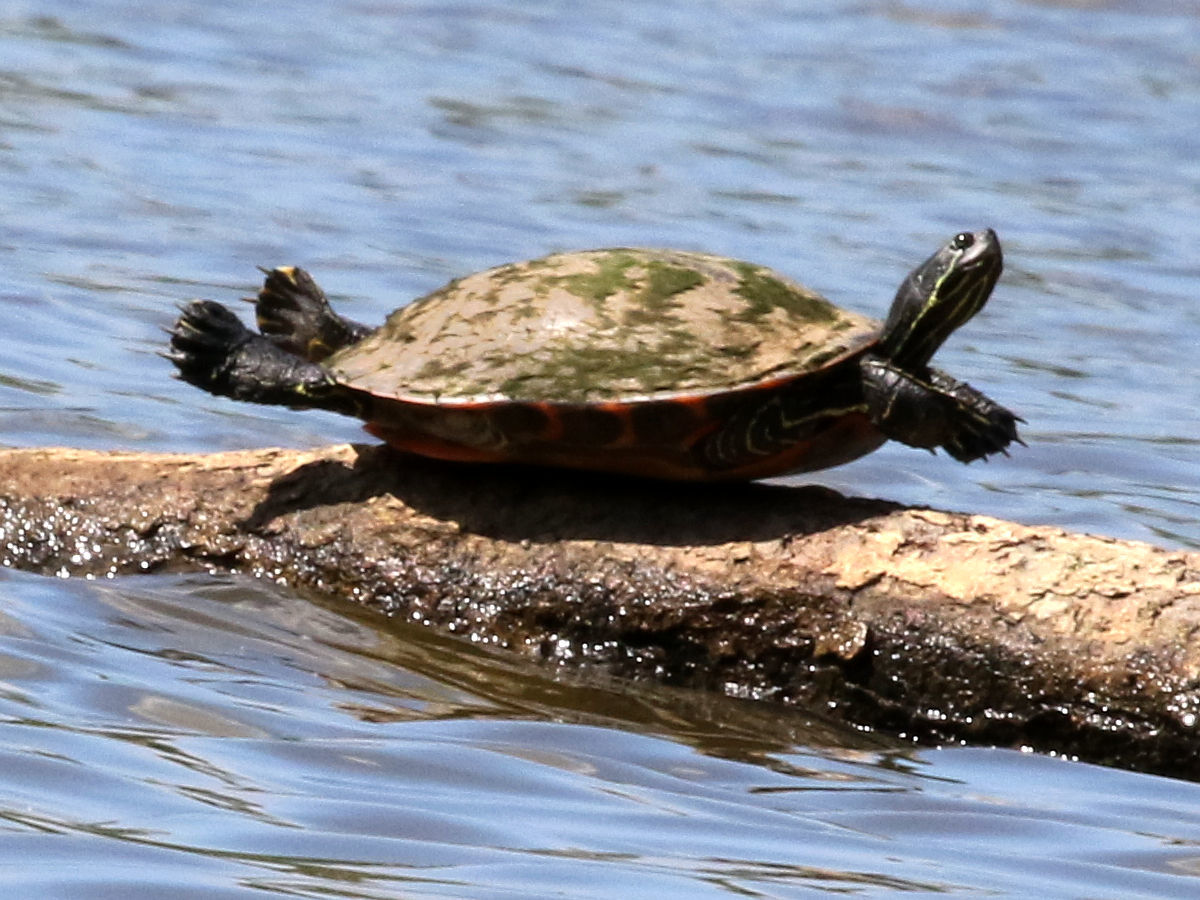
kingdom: Animalia
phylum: Chordata
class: Testudines
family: Emydidae
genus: Pseudemys
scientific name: Pseudemys rubriventris
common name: American red-bellied turtle
